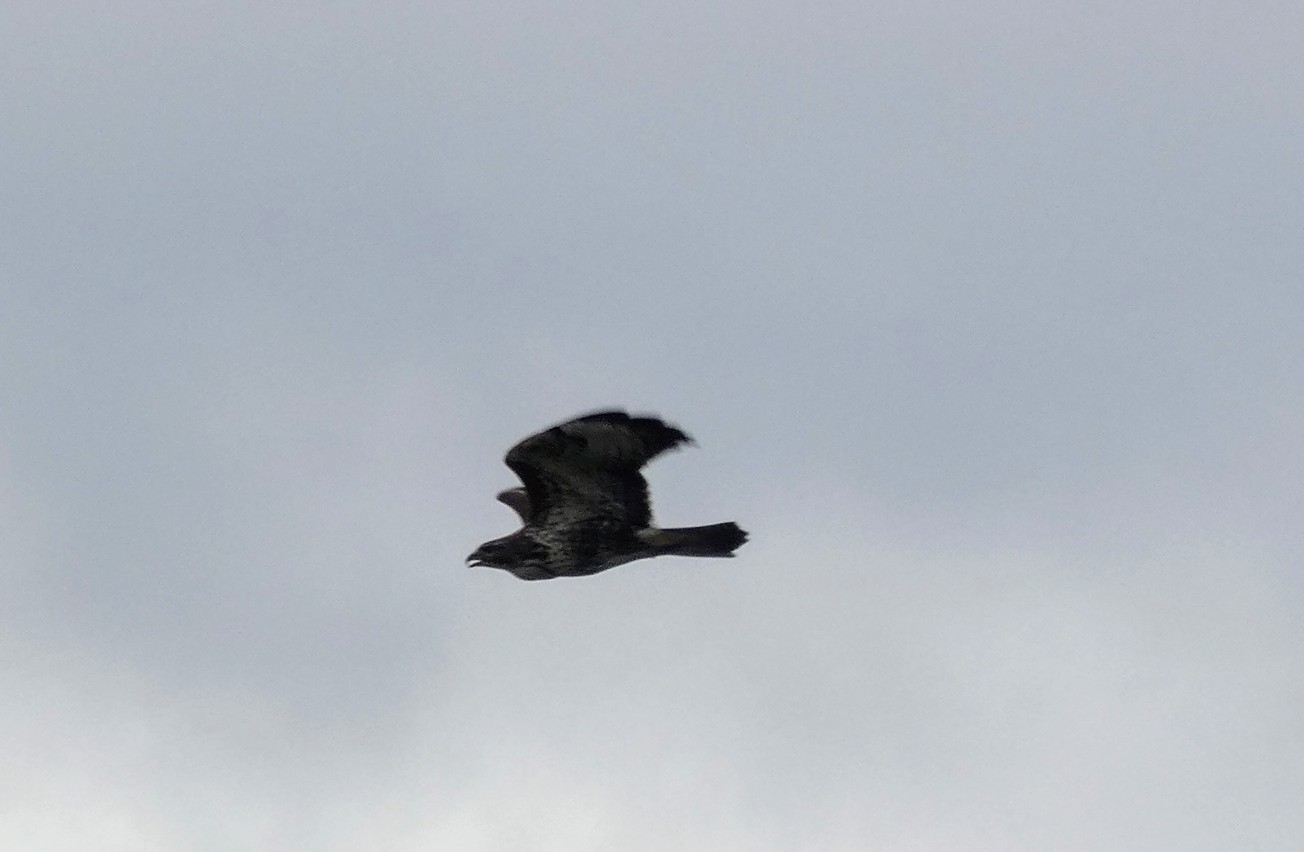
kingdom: Animalia
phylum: Chordata
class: Aves
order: Accipitriformes
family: Accipitridae
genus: Buteo
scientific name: Buteo buteo
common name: Common buzzard
